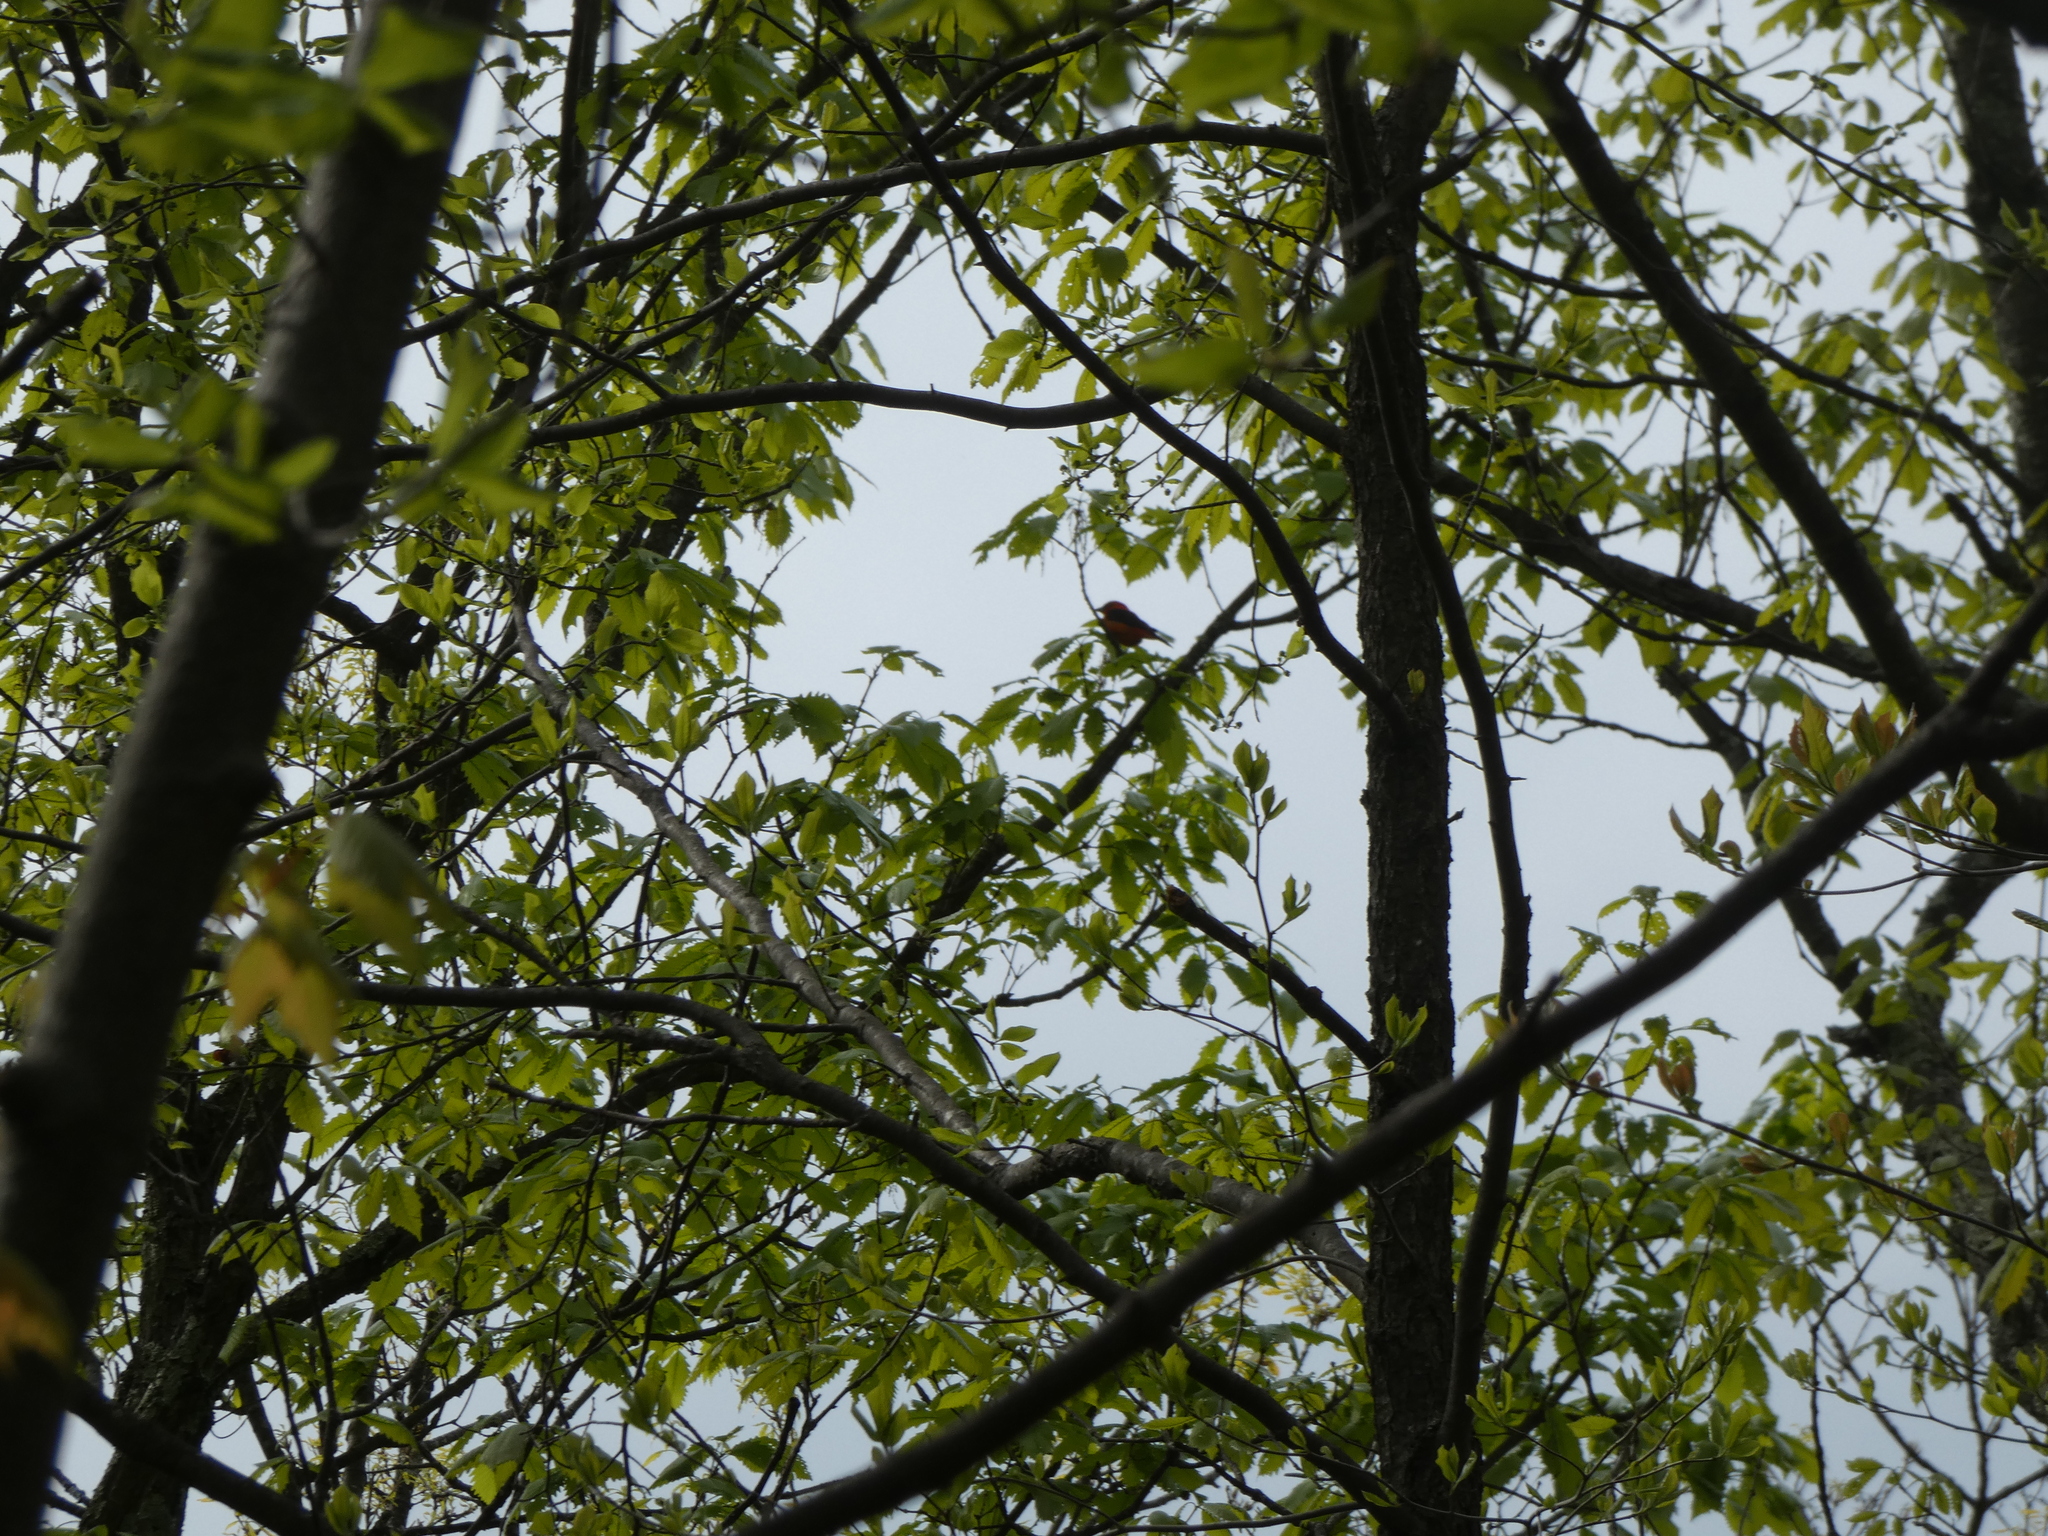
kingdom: Animalia
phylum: Chordata
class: Aves
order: Passeriformes
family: Cardinalidae
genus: Piranga
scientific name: Piranga olivacea
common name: Scarlet tanager
